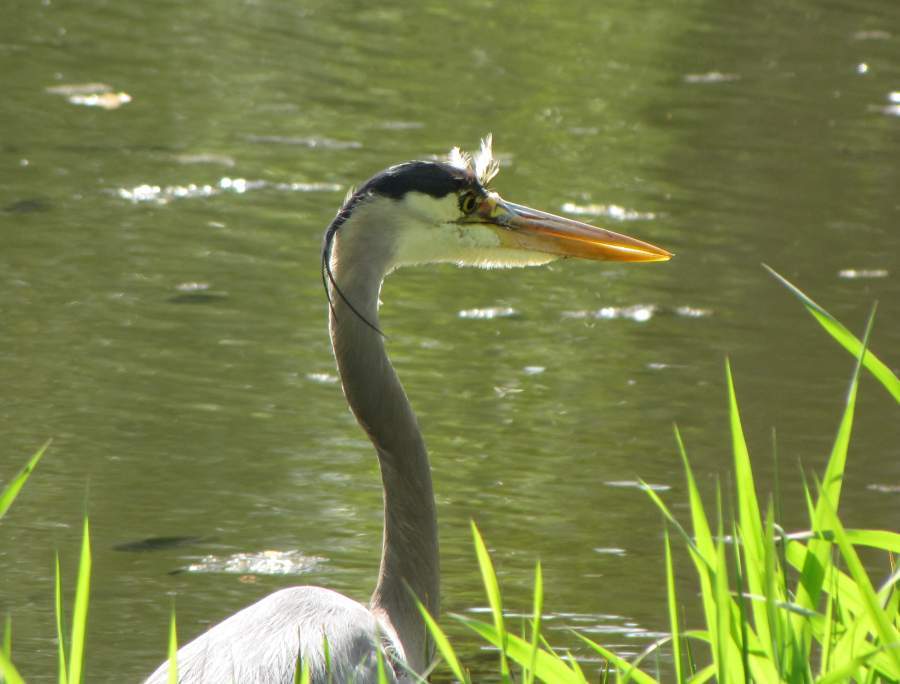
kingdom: Animalia
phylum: Chordata
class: Aves
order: Pelecaniformes
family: Ardeidae
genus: Ardea
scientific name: Ardea herodias
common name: Great blue heron
